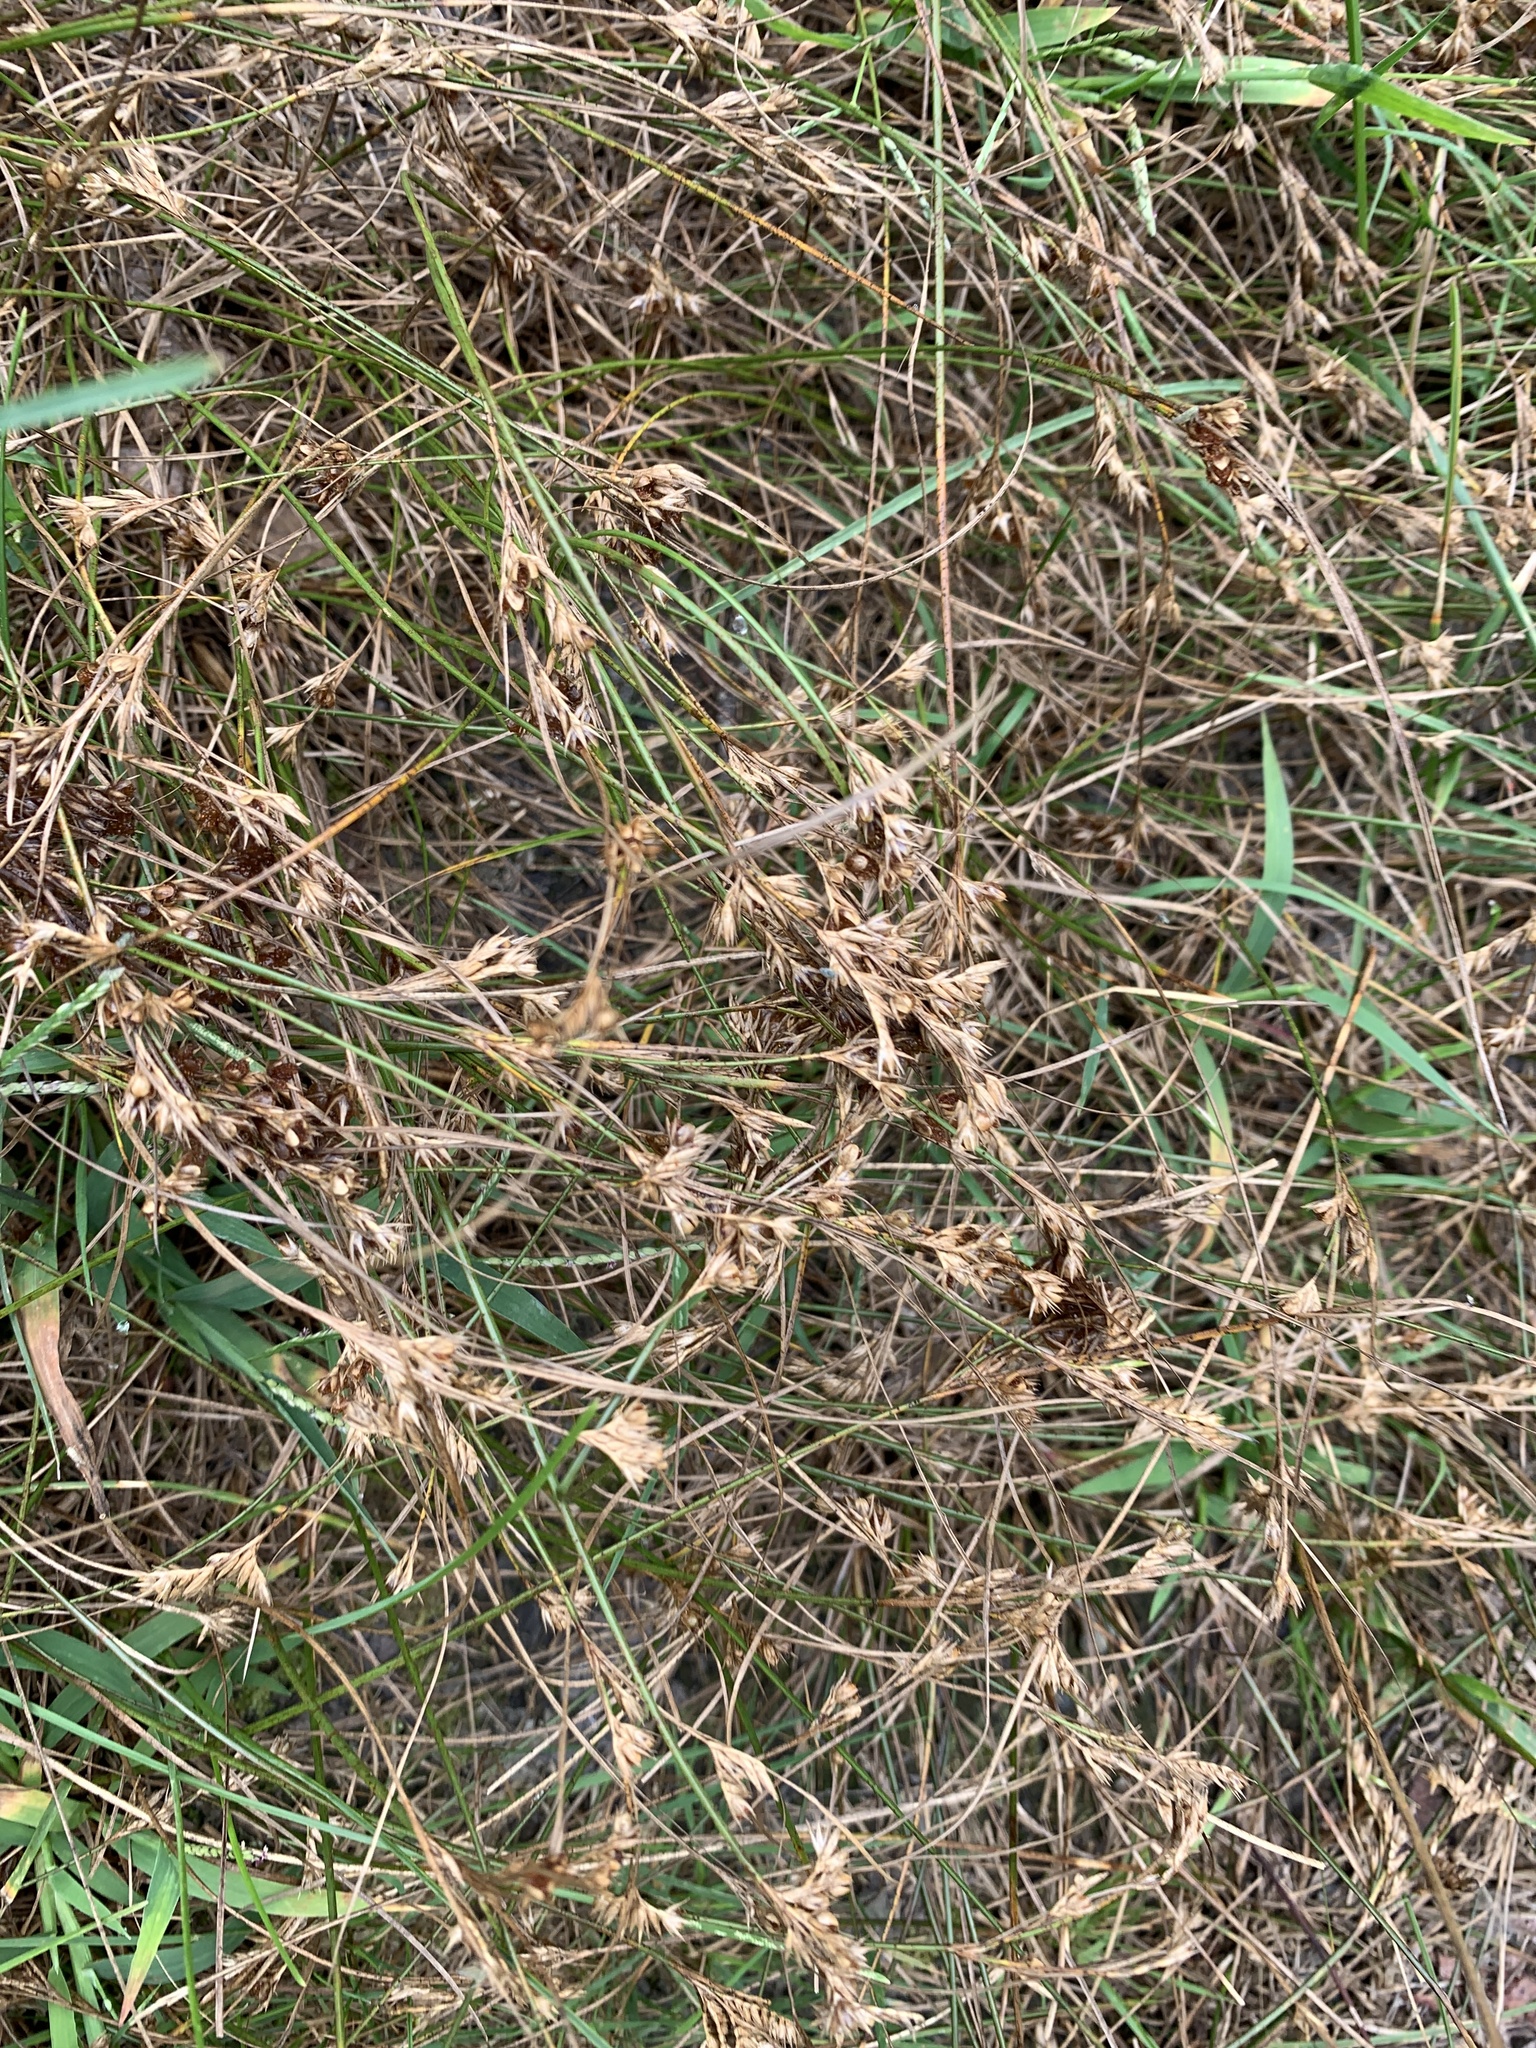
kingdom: Plantae
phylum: Tracheophyta
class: Liliopsida
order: Poales
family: Juncaceae
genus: Juncus
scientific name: Juncus tenuis
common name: Slender rush
